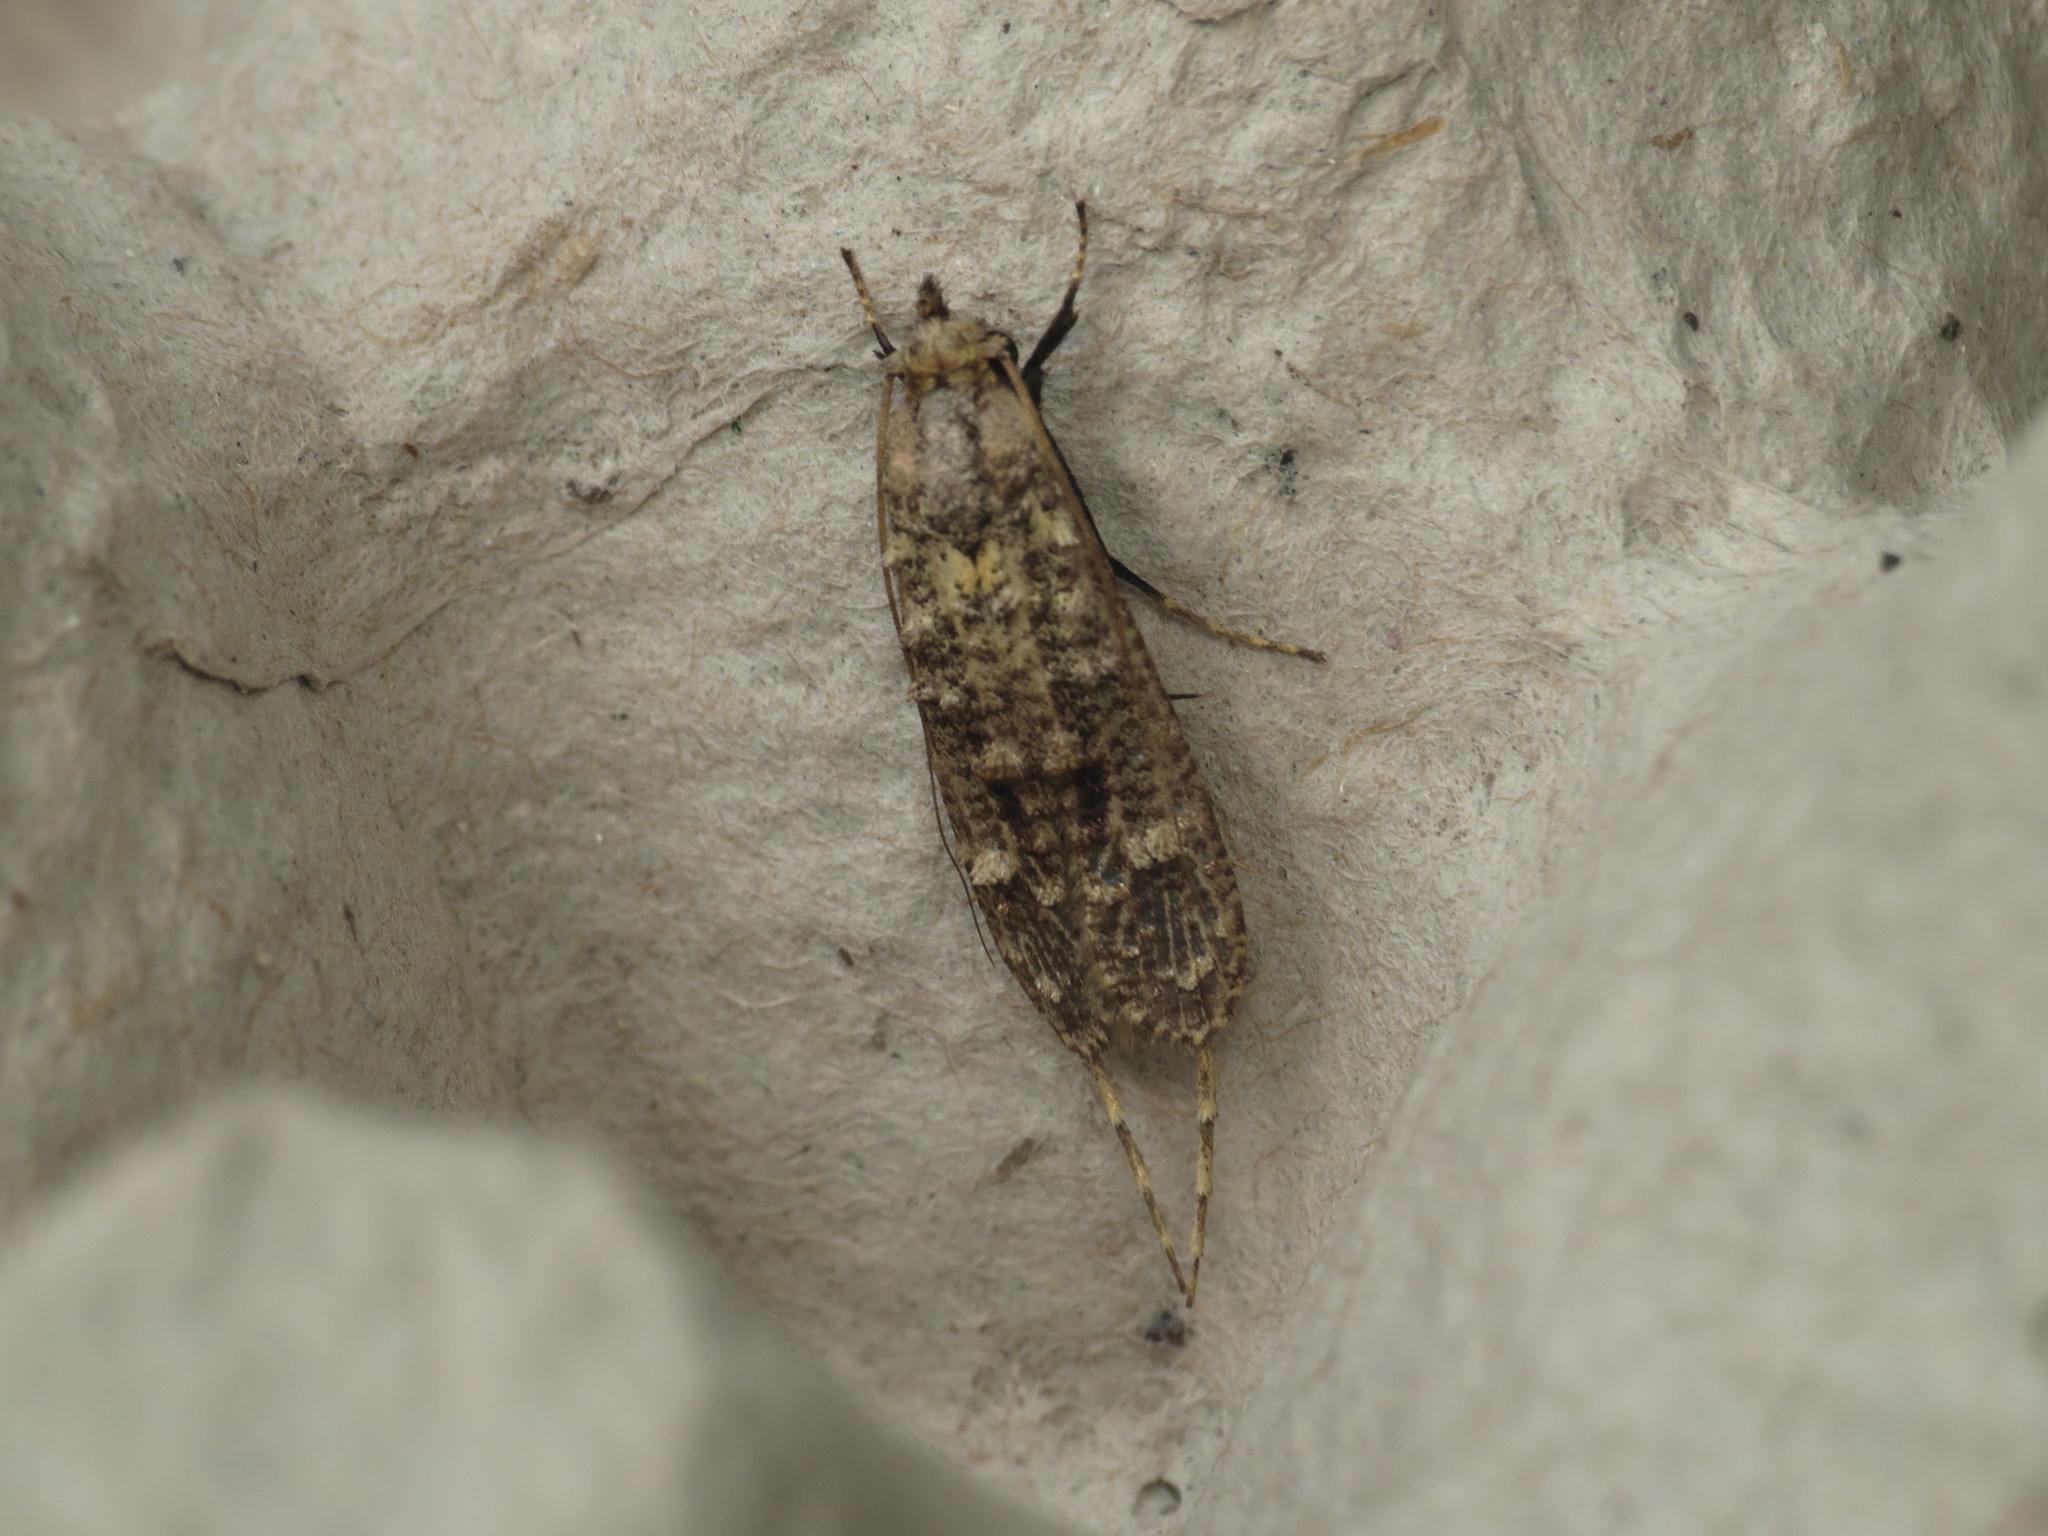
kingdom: Animalia
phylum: Arthropoda
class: Insecta
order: Lepidoptera
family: Tineidae
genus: Gerontha
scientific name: Gerontha acrosthenia
